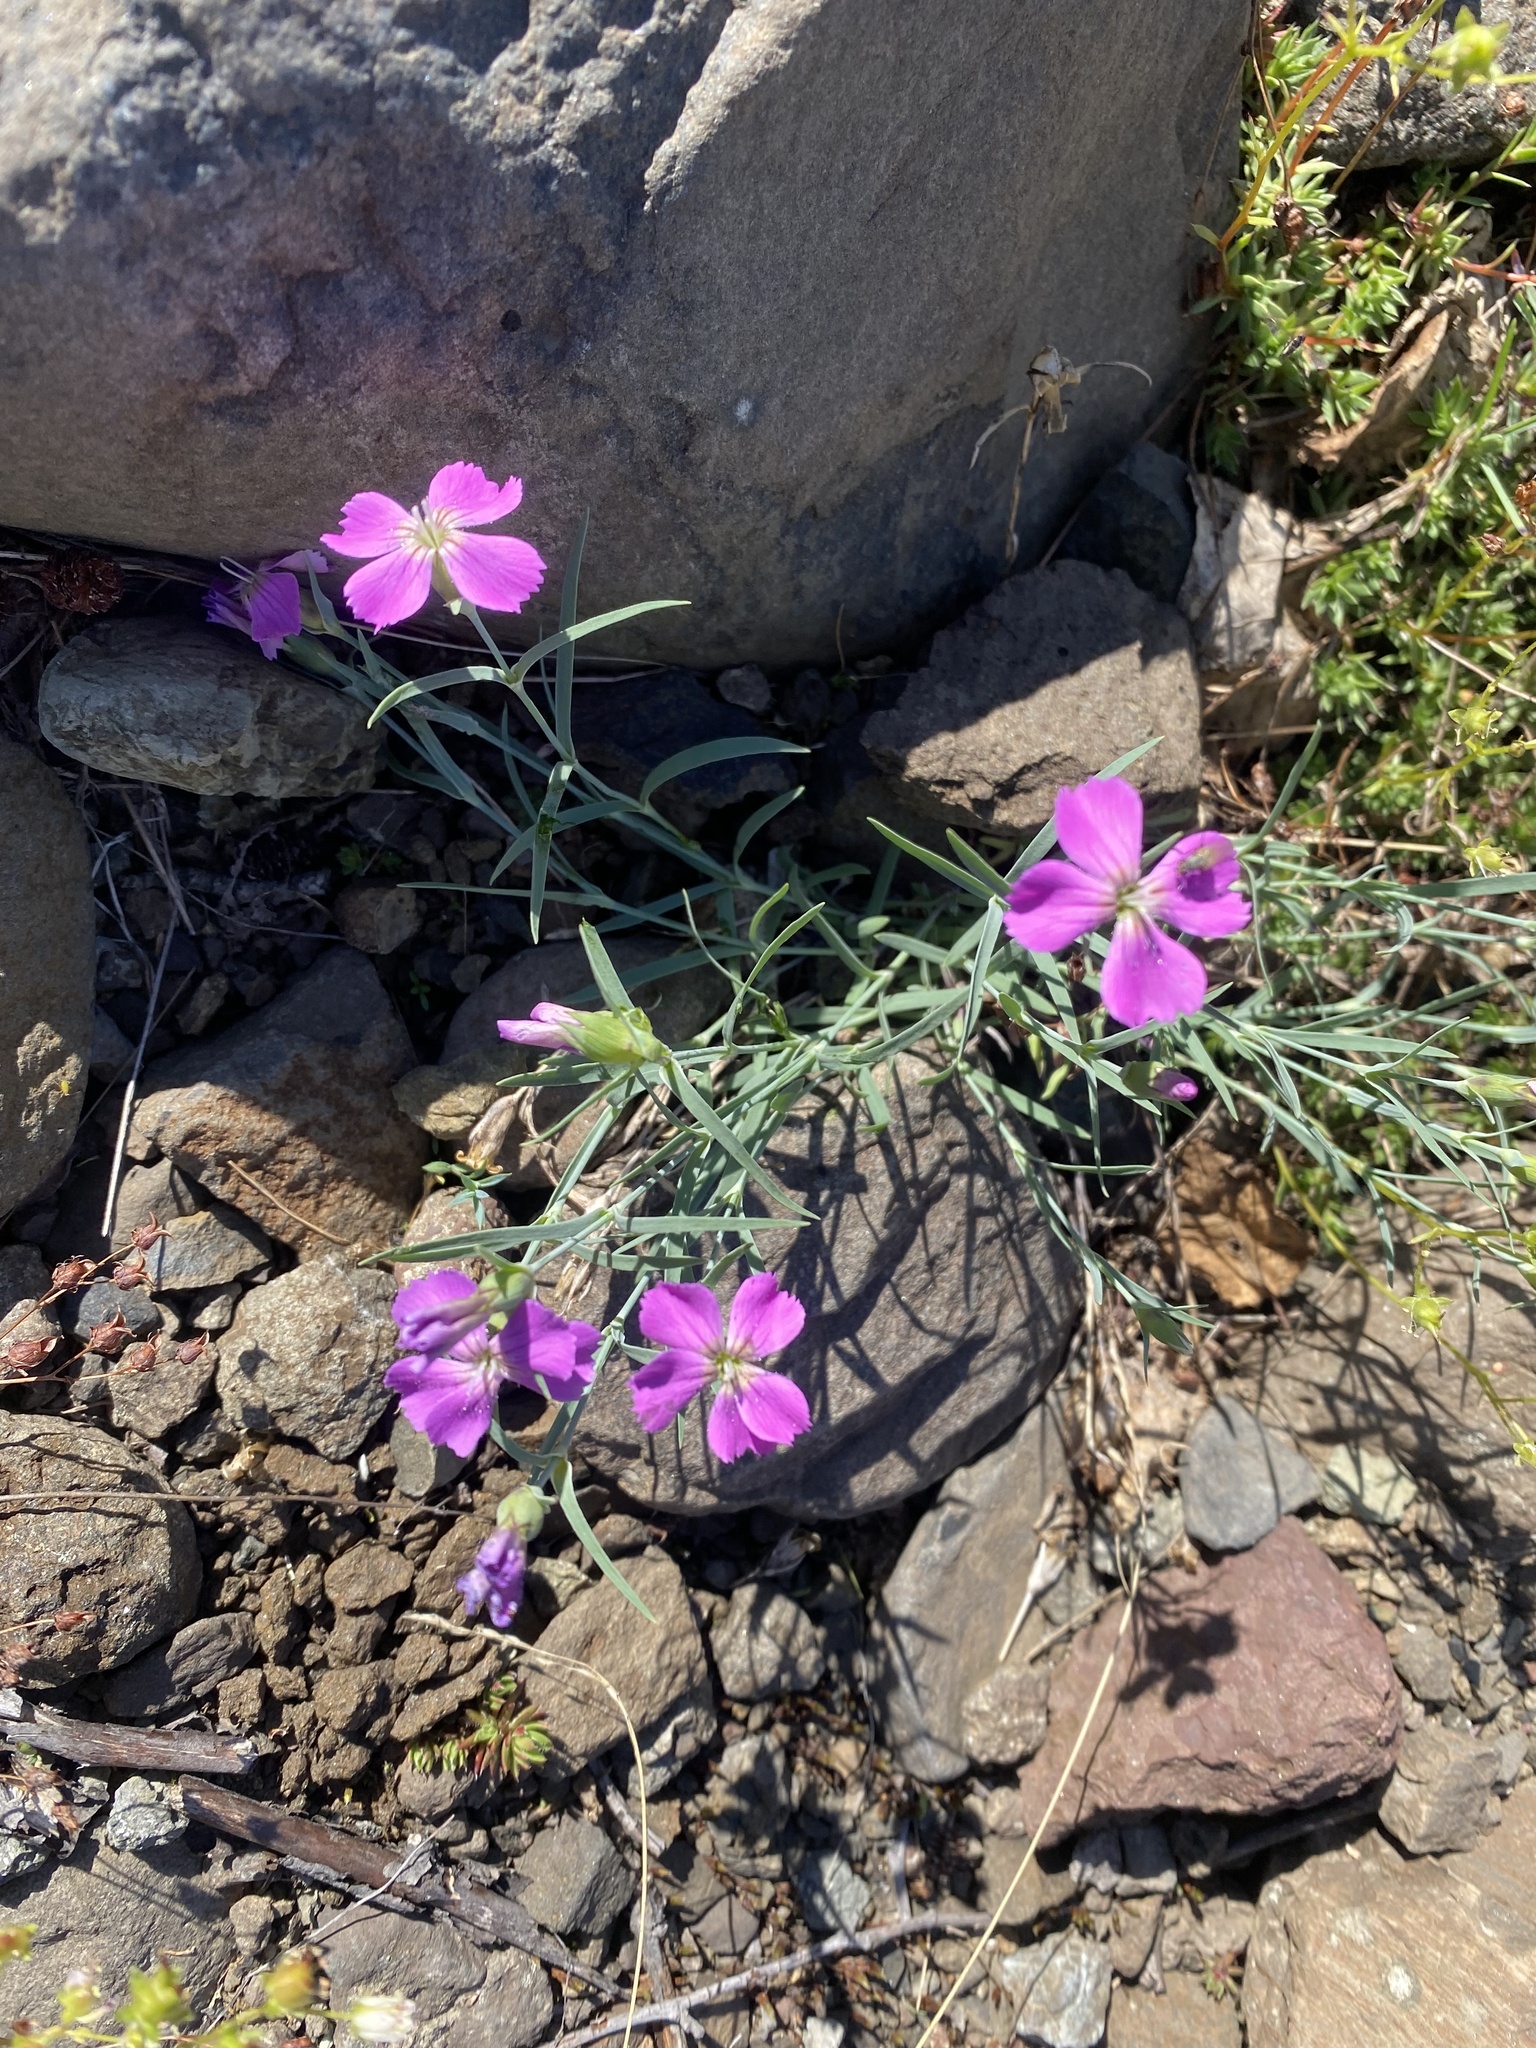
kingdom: Plantae
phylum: Tracheophyta
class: Magnoliopsida
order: Caryophyllales
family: Caryophyllaceae
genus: Dianthus
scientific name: Dianthus repens
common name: Northern pink
